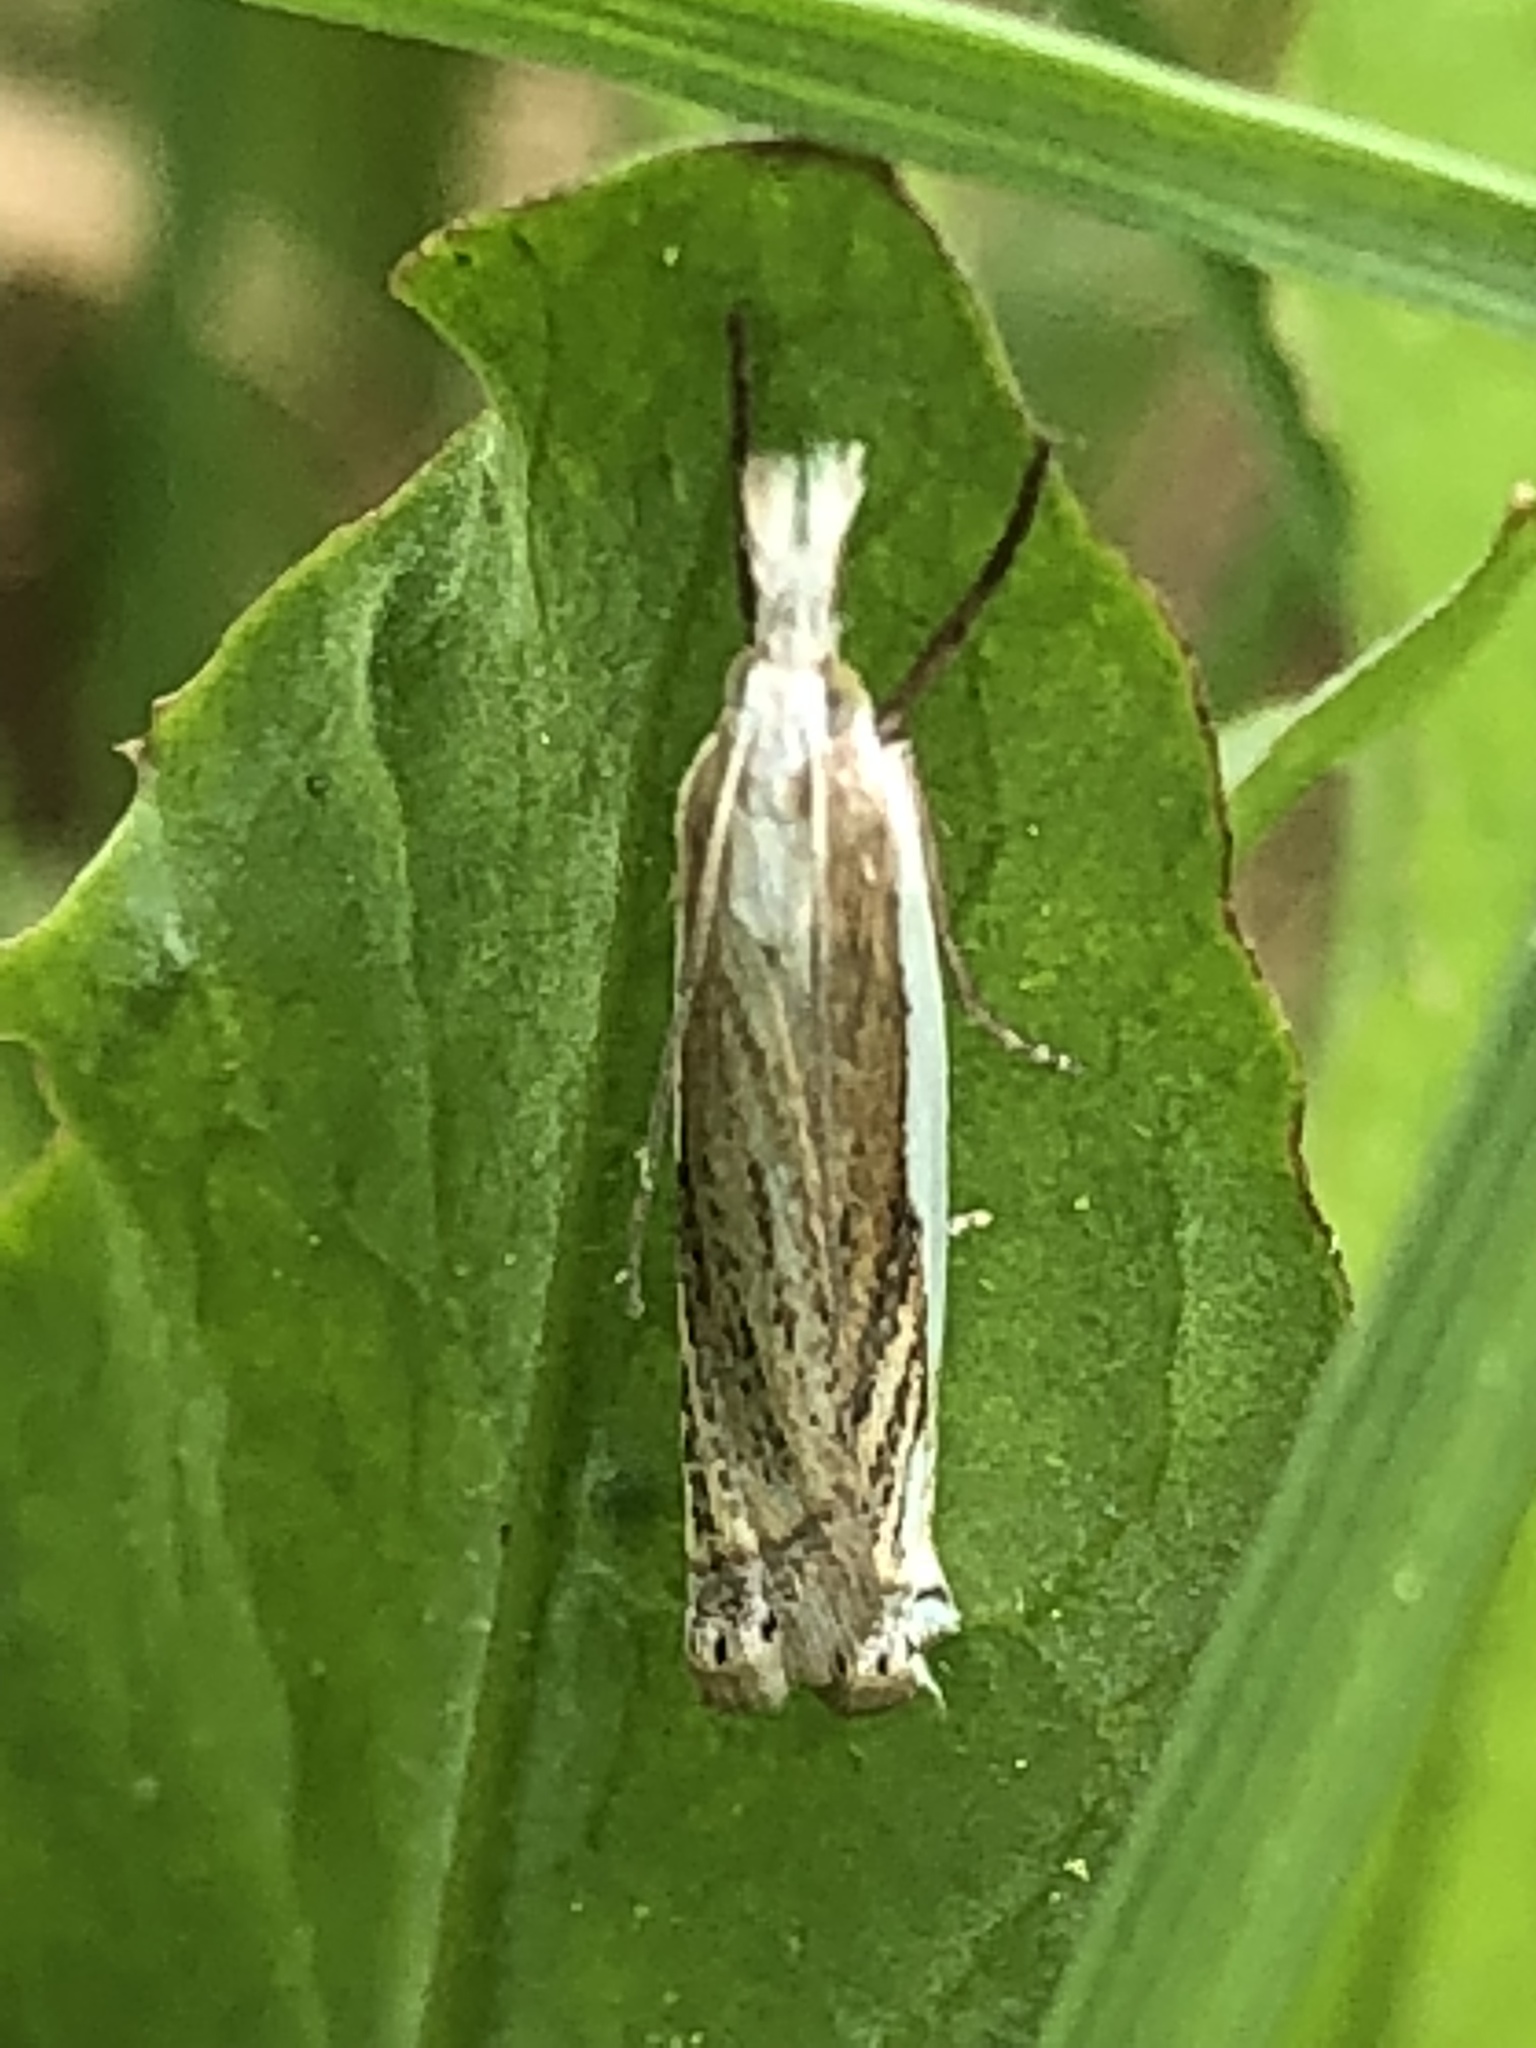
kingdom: Animalia
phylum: Arthropoda
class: Insecta
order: Lepidoptera
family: Crambidae
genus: Crambus
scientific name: Crambus
